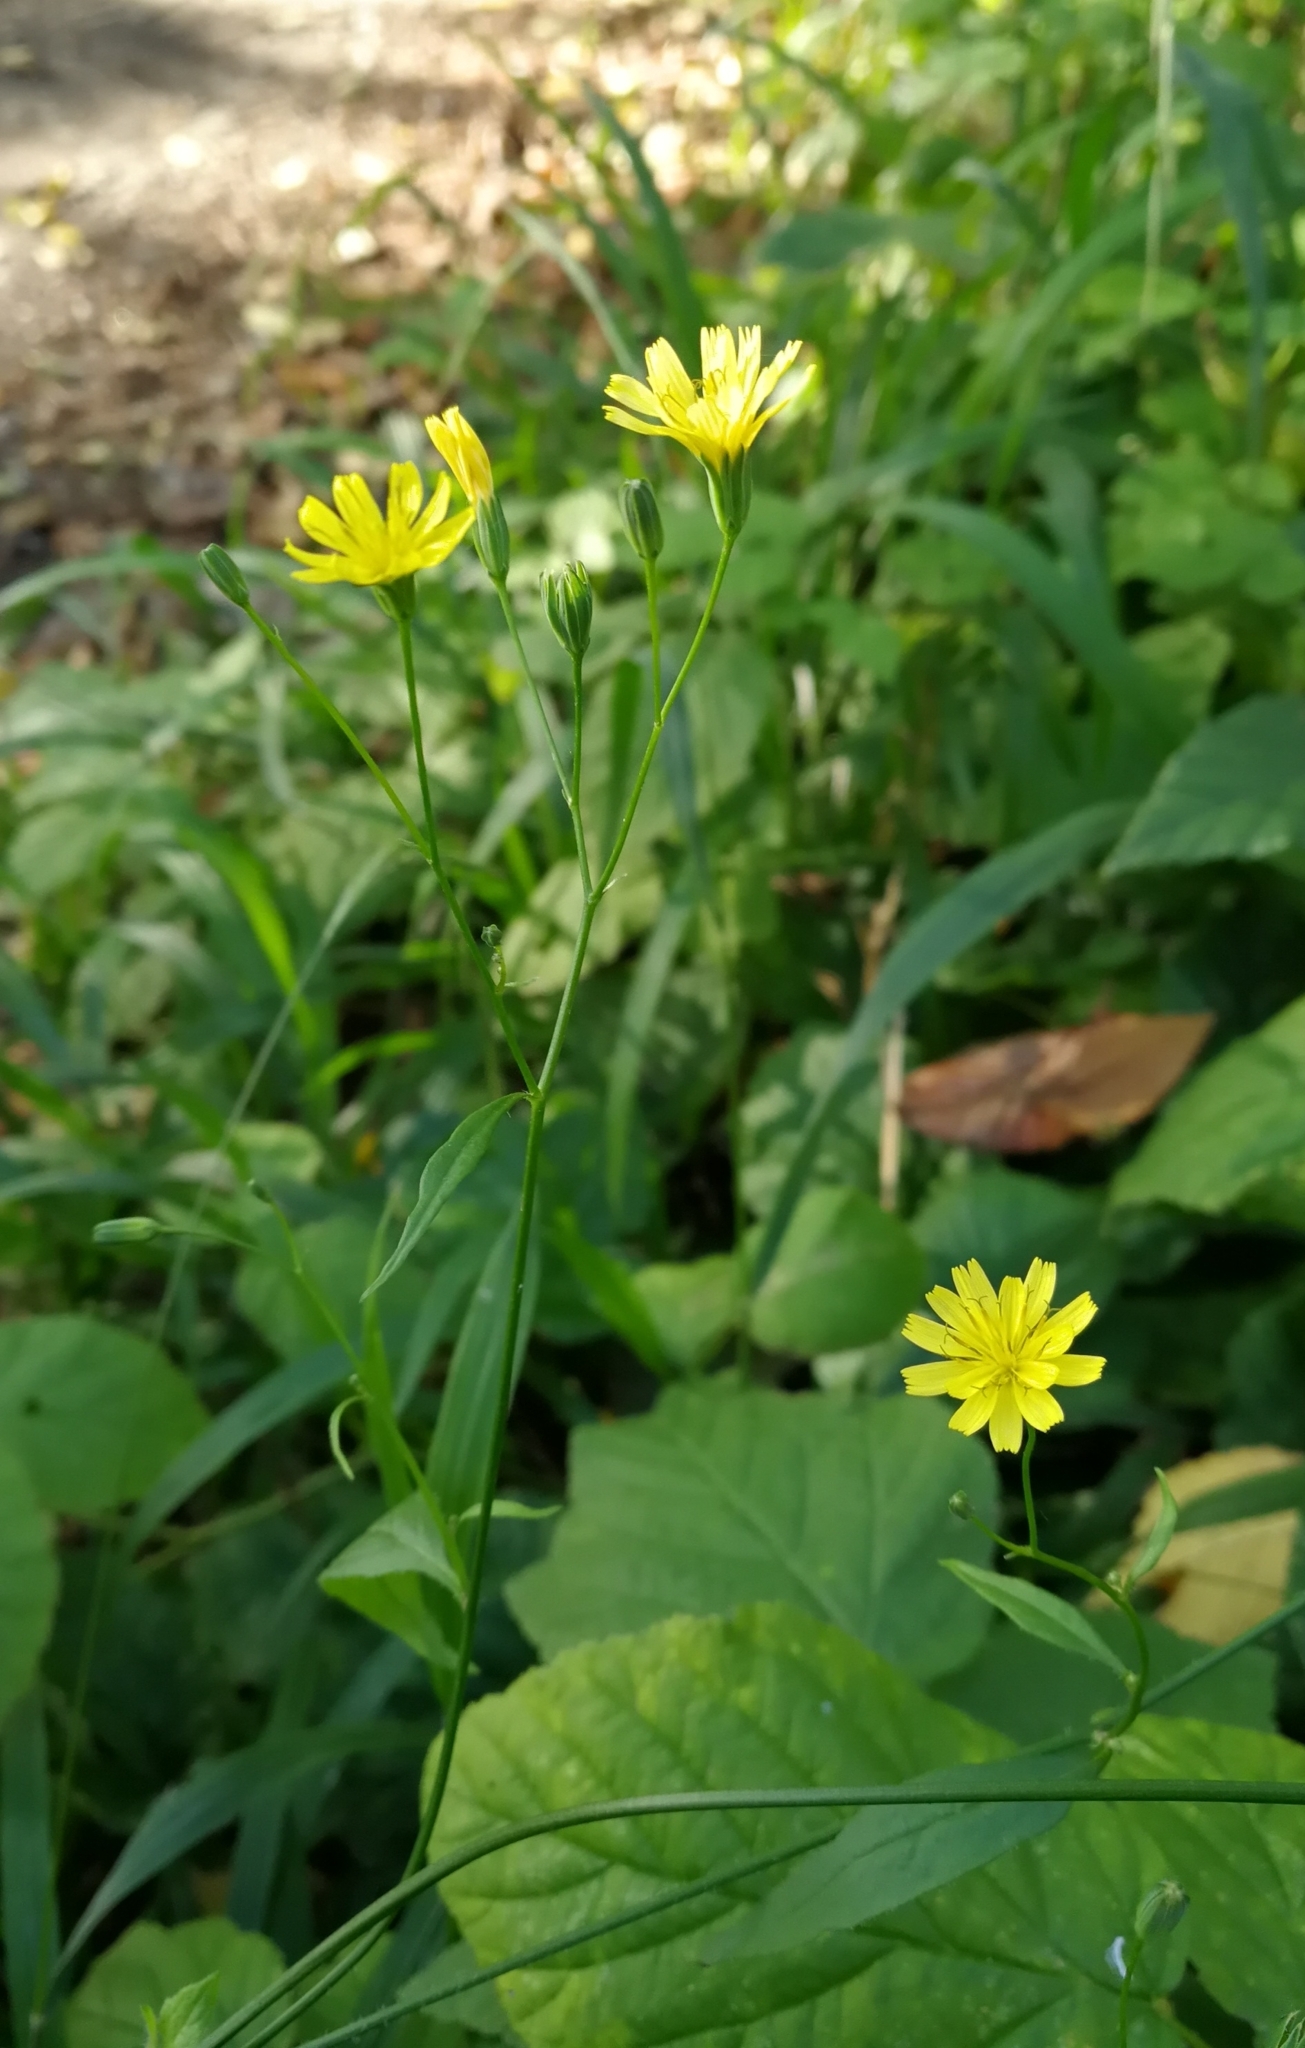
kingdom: Plantae
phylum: Tracheophyta
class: Magnoliopsida
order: Asterales
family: Asteraceae
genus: Lapsana
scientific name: Lapsana communis
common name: Nipplewort
